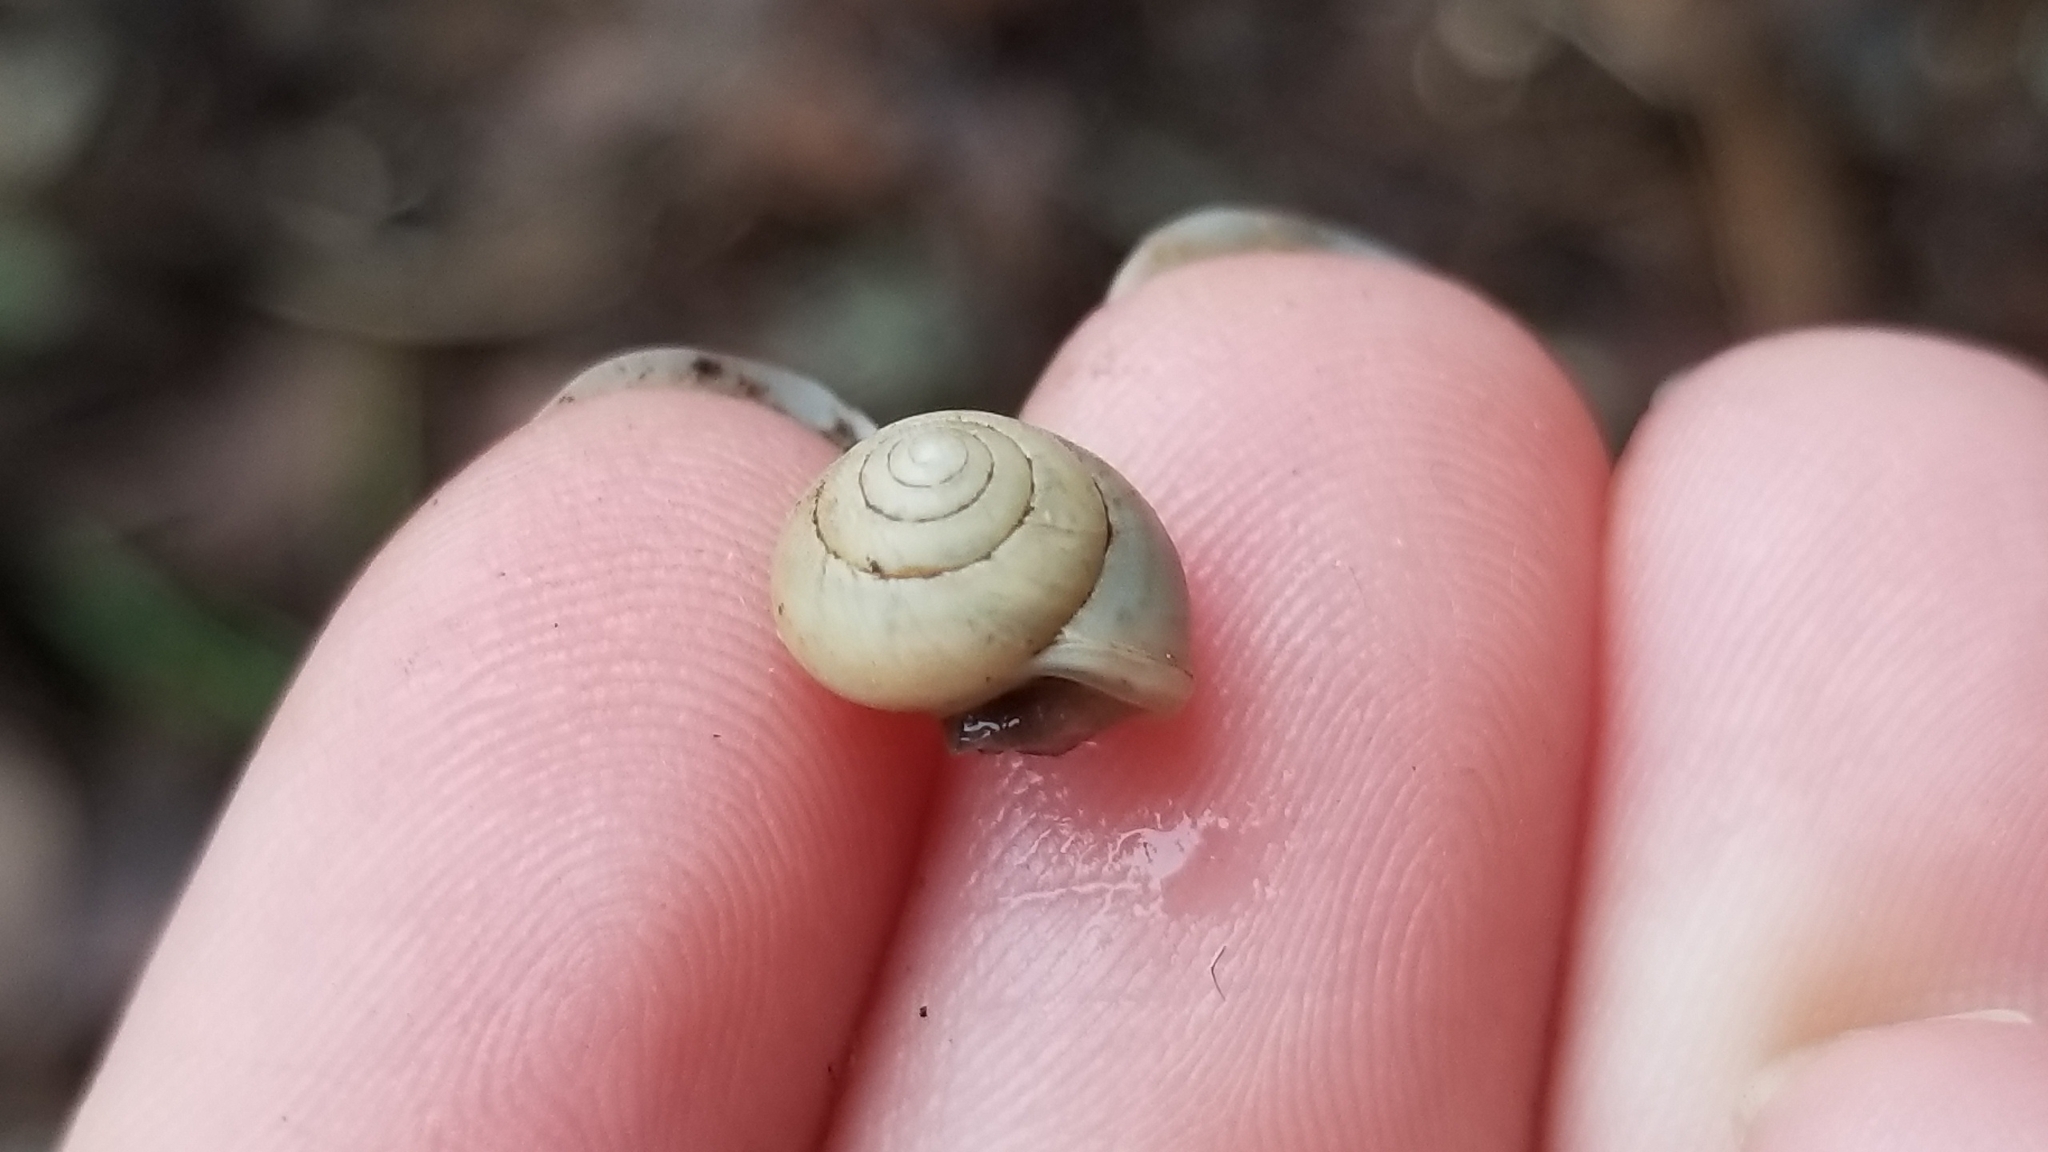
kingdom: Animalia
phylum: Mollusca
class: Gastropoda
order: Cycloneritida
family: Helicinidae
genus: Helicina
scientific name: Helicina orbiculata
